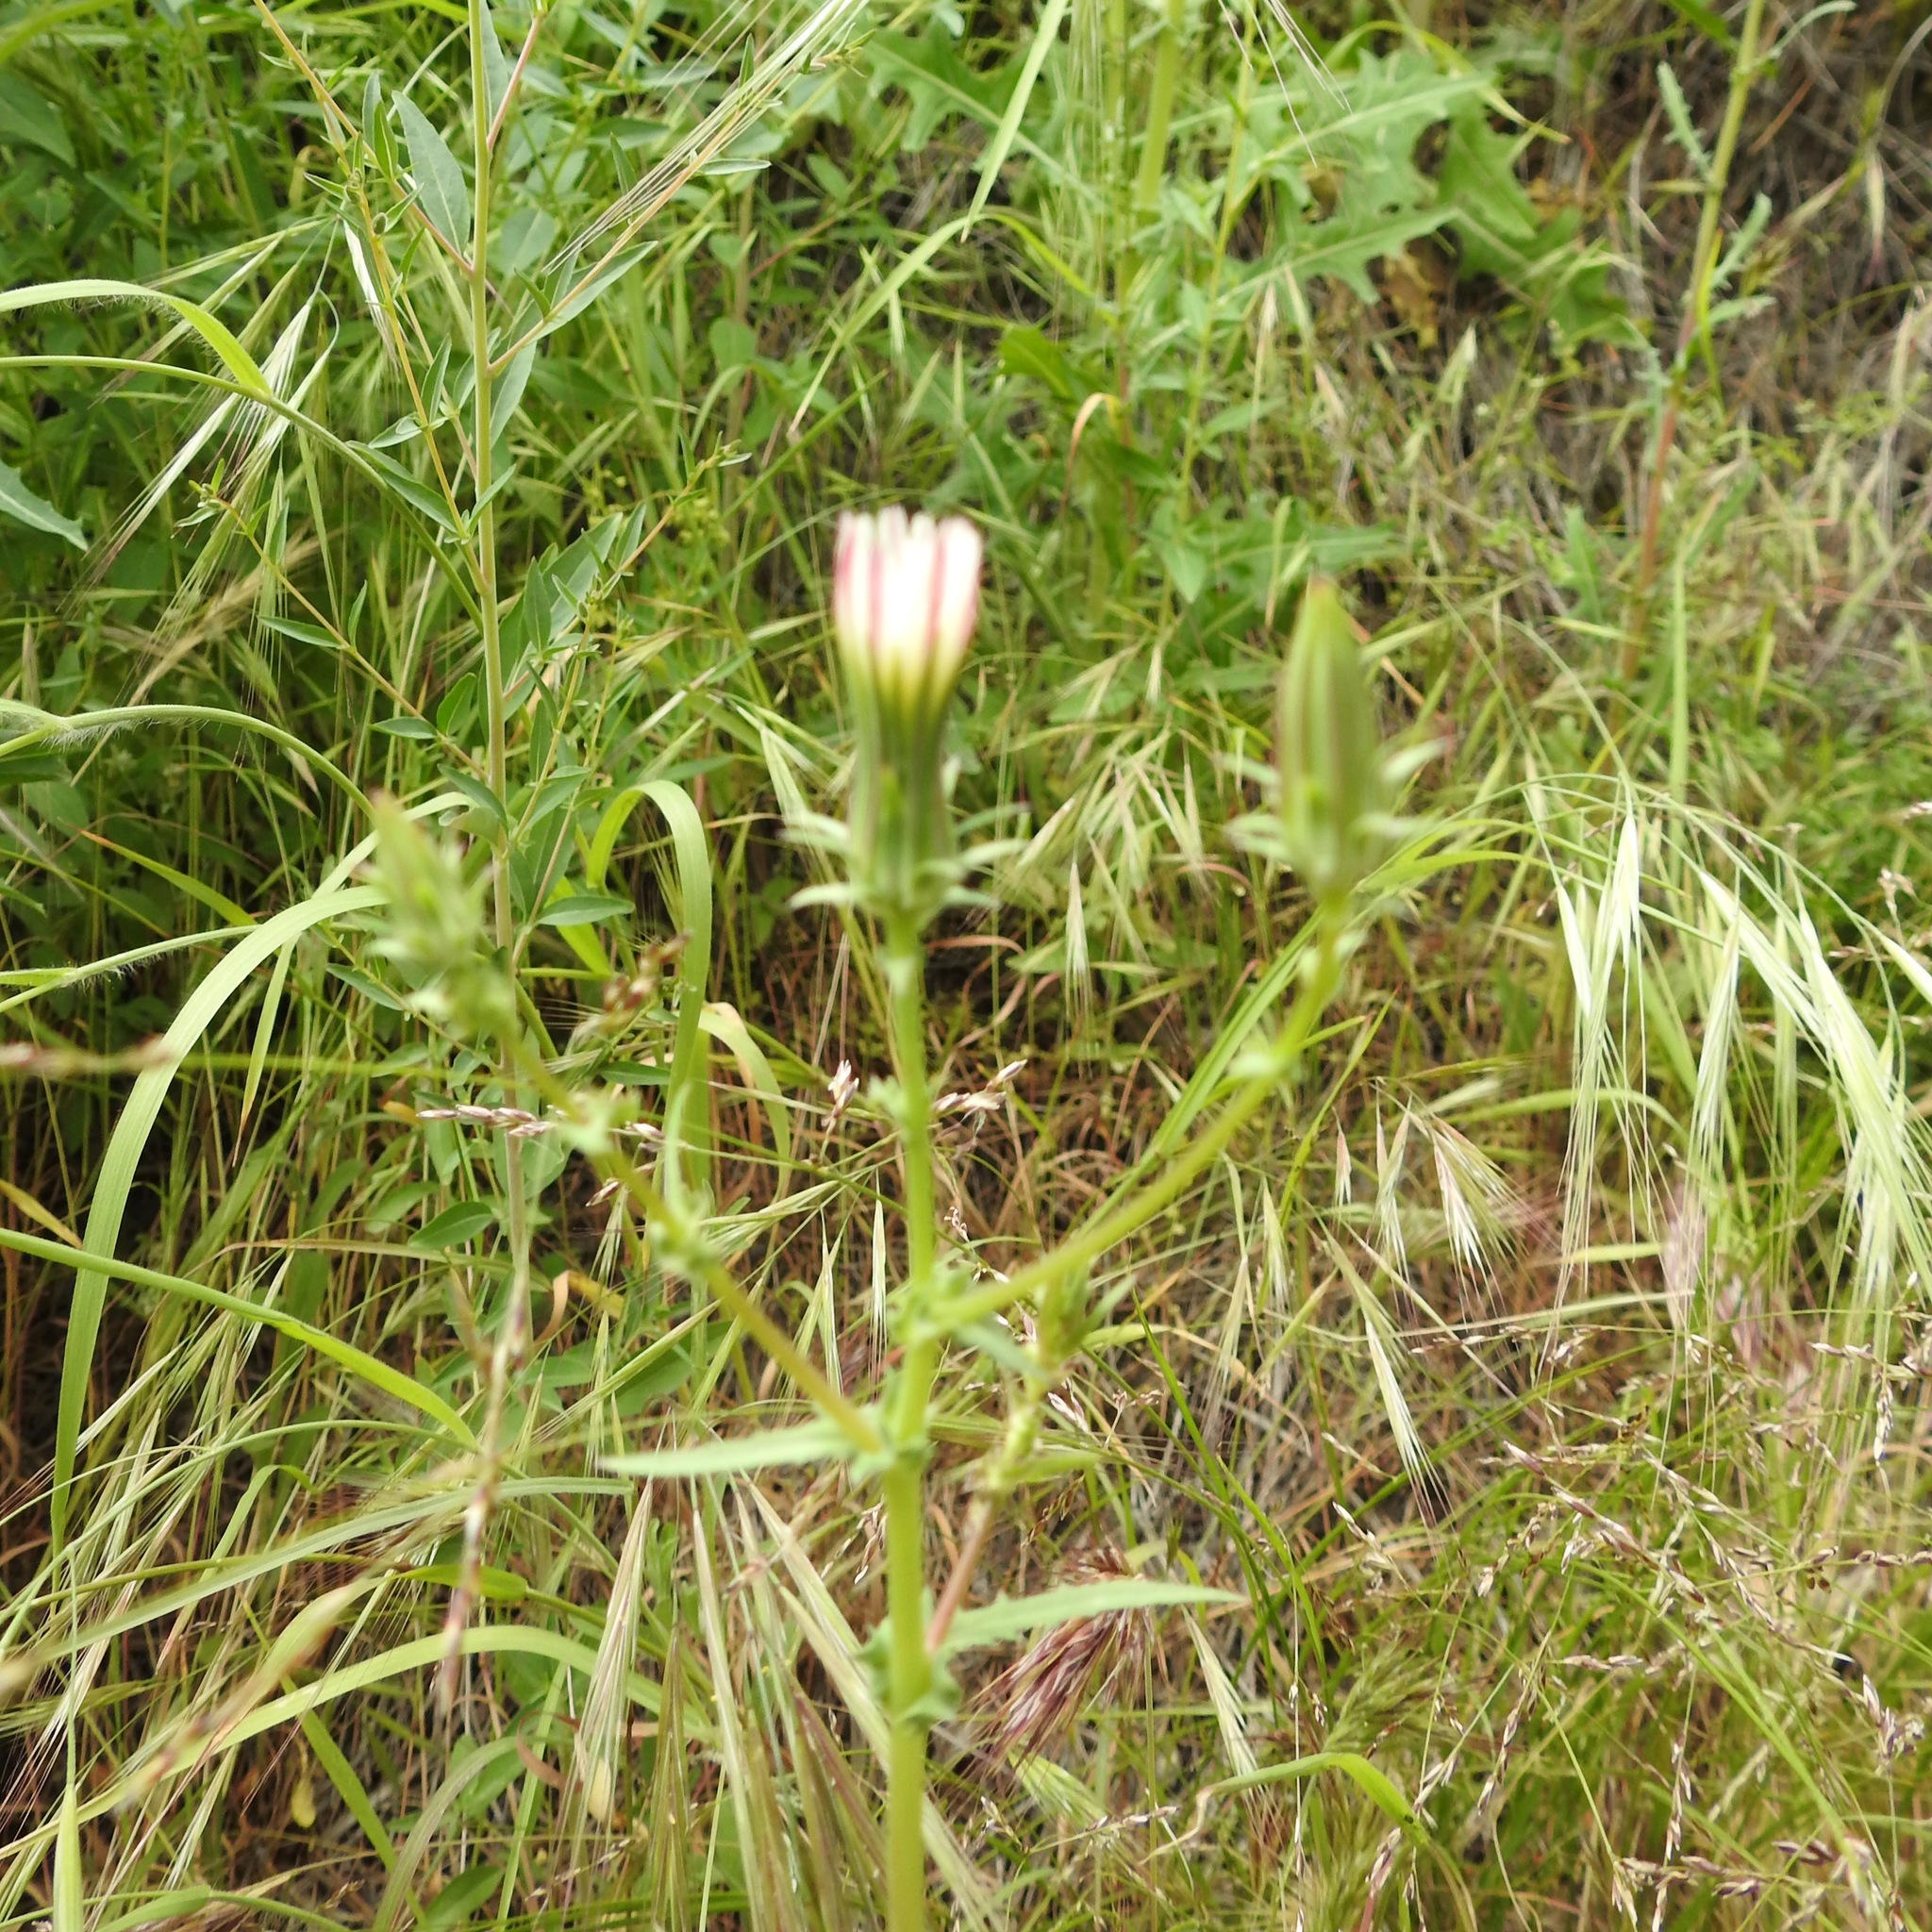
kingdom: Plantae
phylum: Tracheophyta
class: Magnoliopsida
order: Asterales
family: Asteraceae
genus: Rafinesquia
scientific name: Rafinesquia californica
